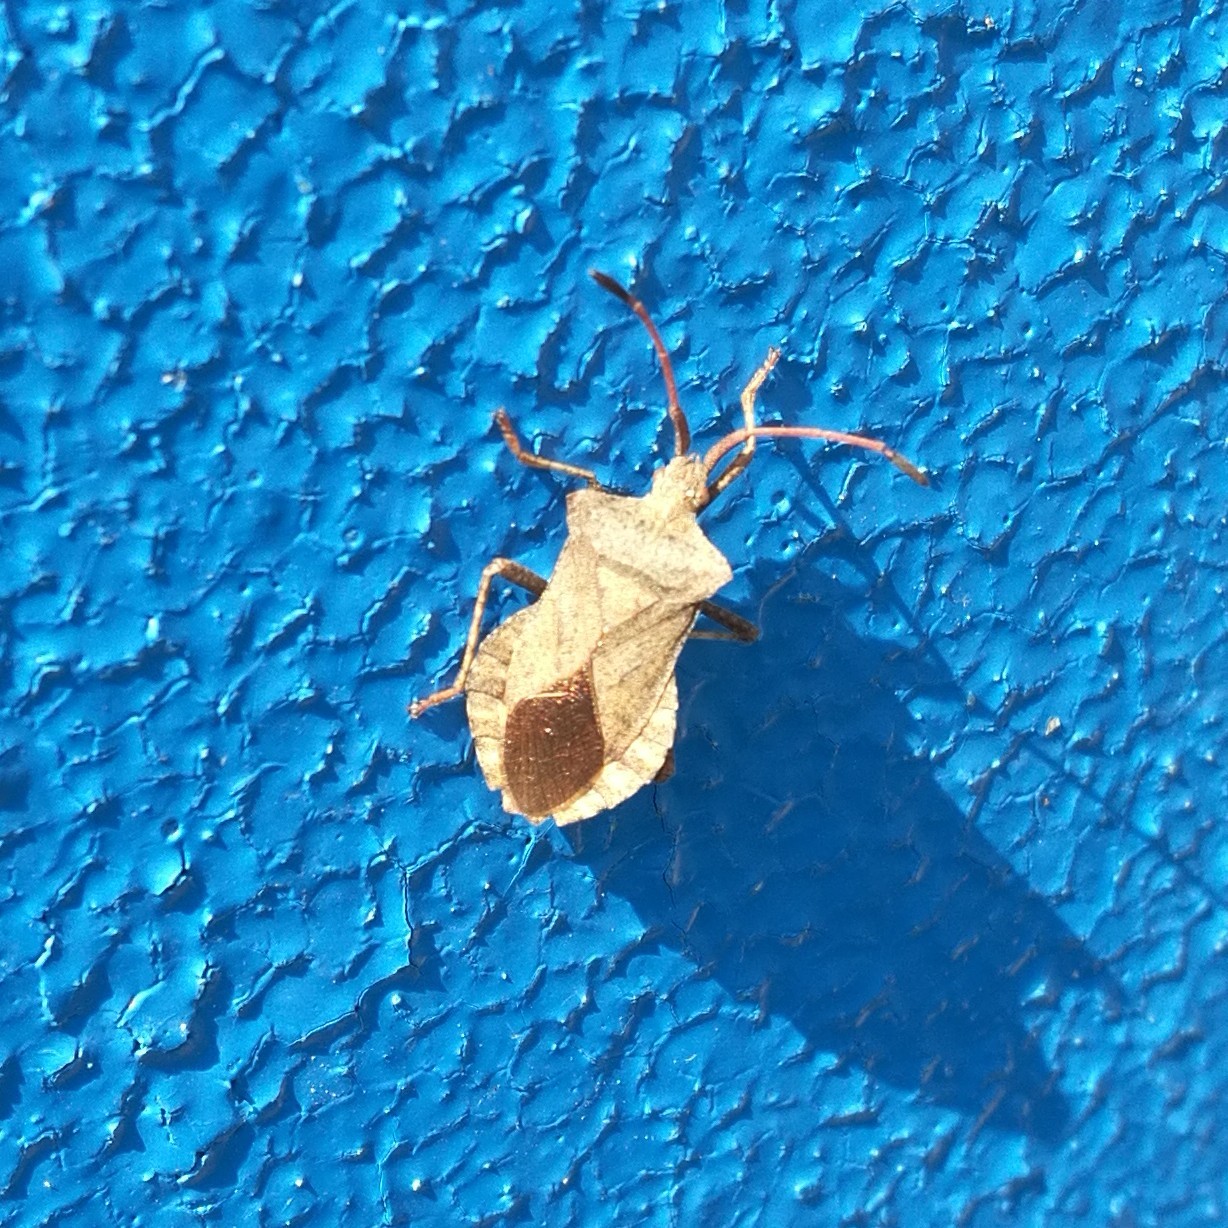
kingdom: Animalia
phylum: Arthropoda
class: Insecta
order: Hemiptera
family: Coreidae
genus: Coreus
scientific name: Coreus marginatus
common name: Dock bug
